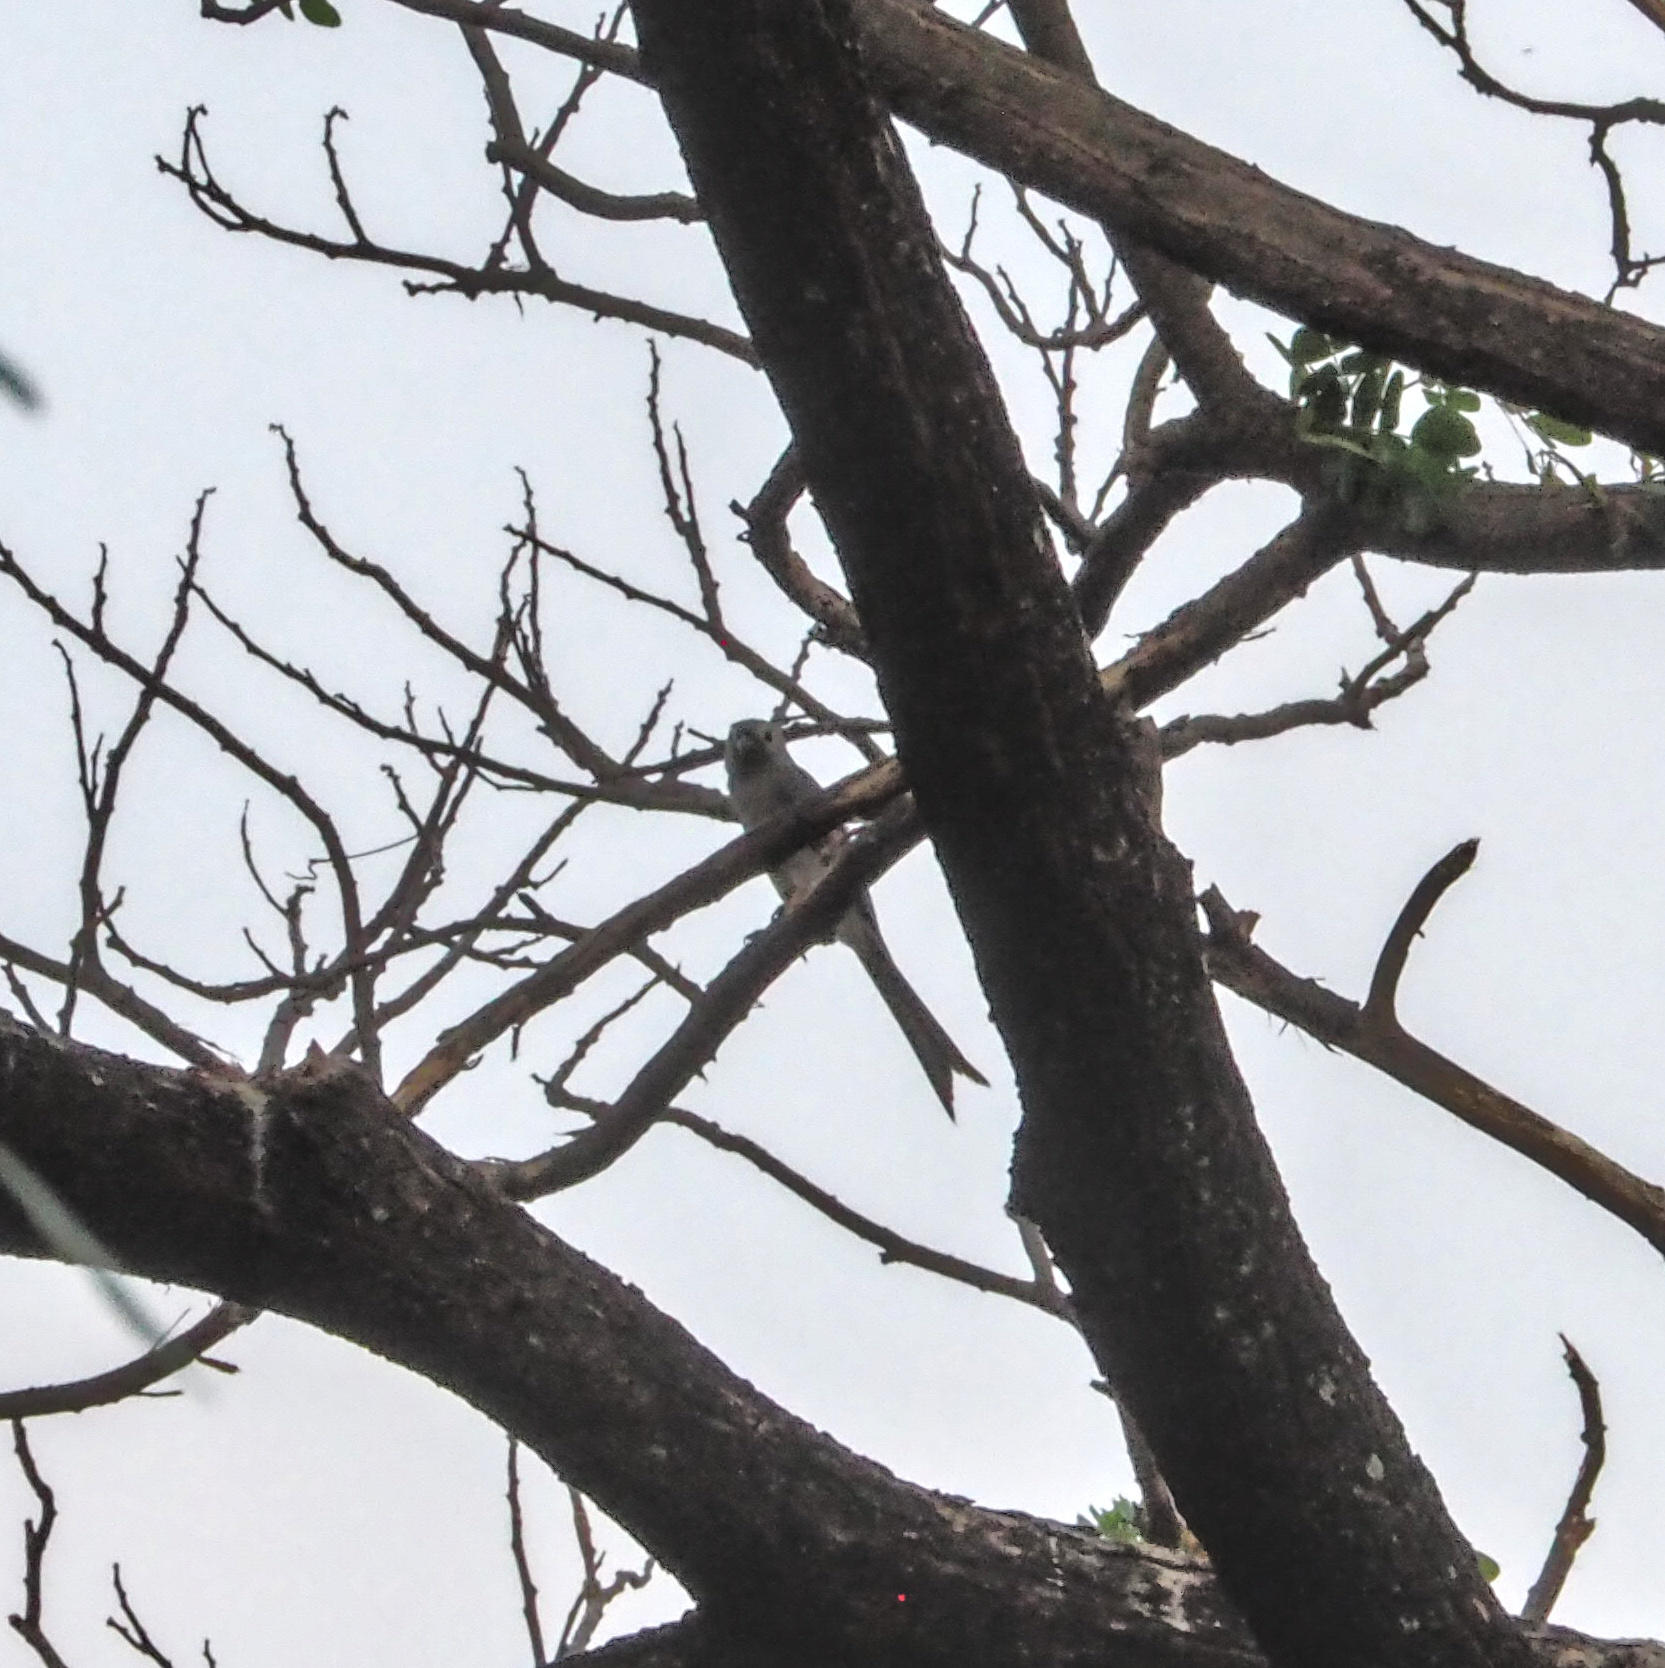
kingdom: Animalia
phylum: Chordata
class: Aves
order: Passeriformes
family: Dicruridae
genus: Dicrurus
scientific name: Dicrurus leucophaeus
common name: Ashy drongo
